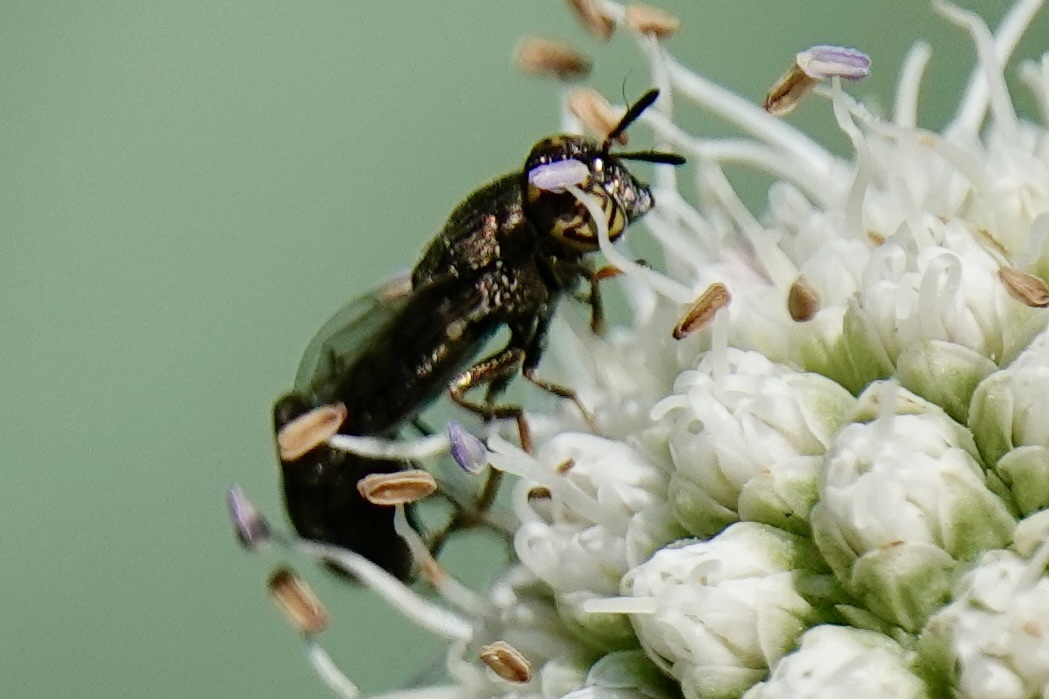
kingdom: Animalia
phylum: Arthropoda
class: Insecta
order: Diptera
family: Syrphidae
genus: Orthonevra
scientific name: Orthonevra nitida
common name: Wavy mucksucker
